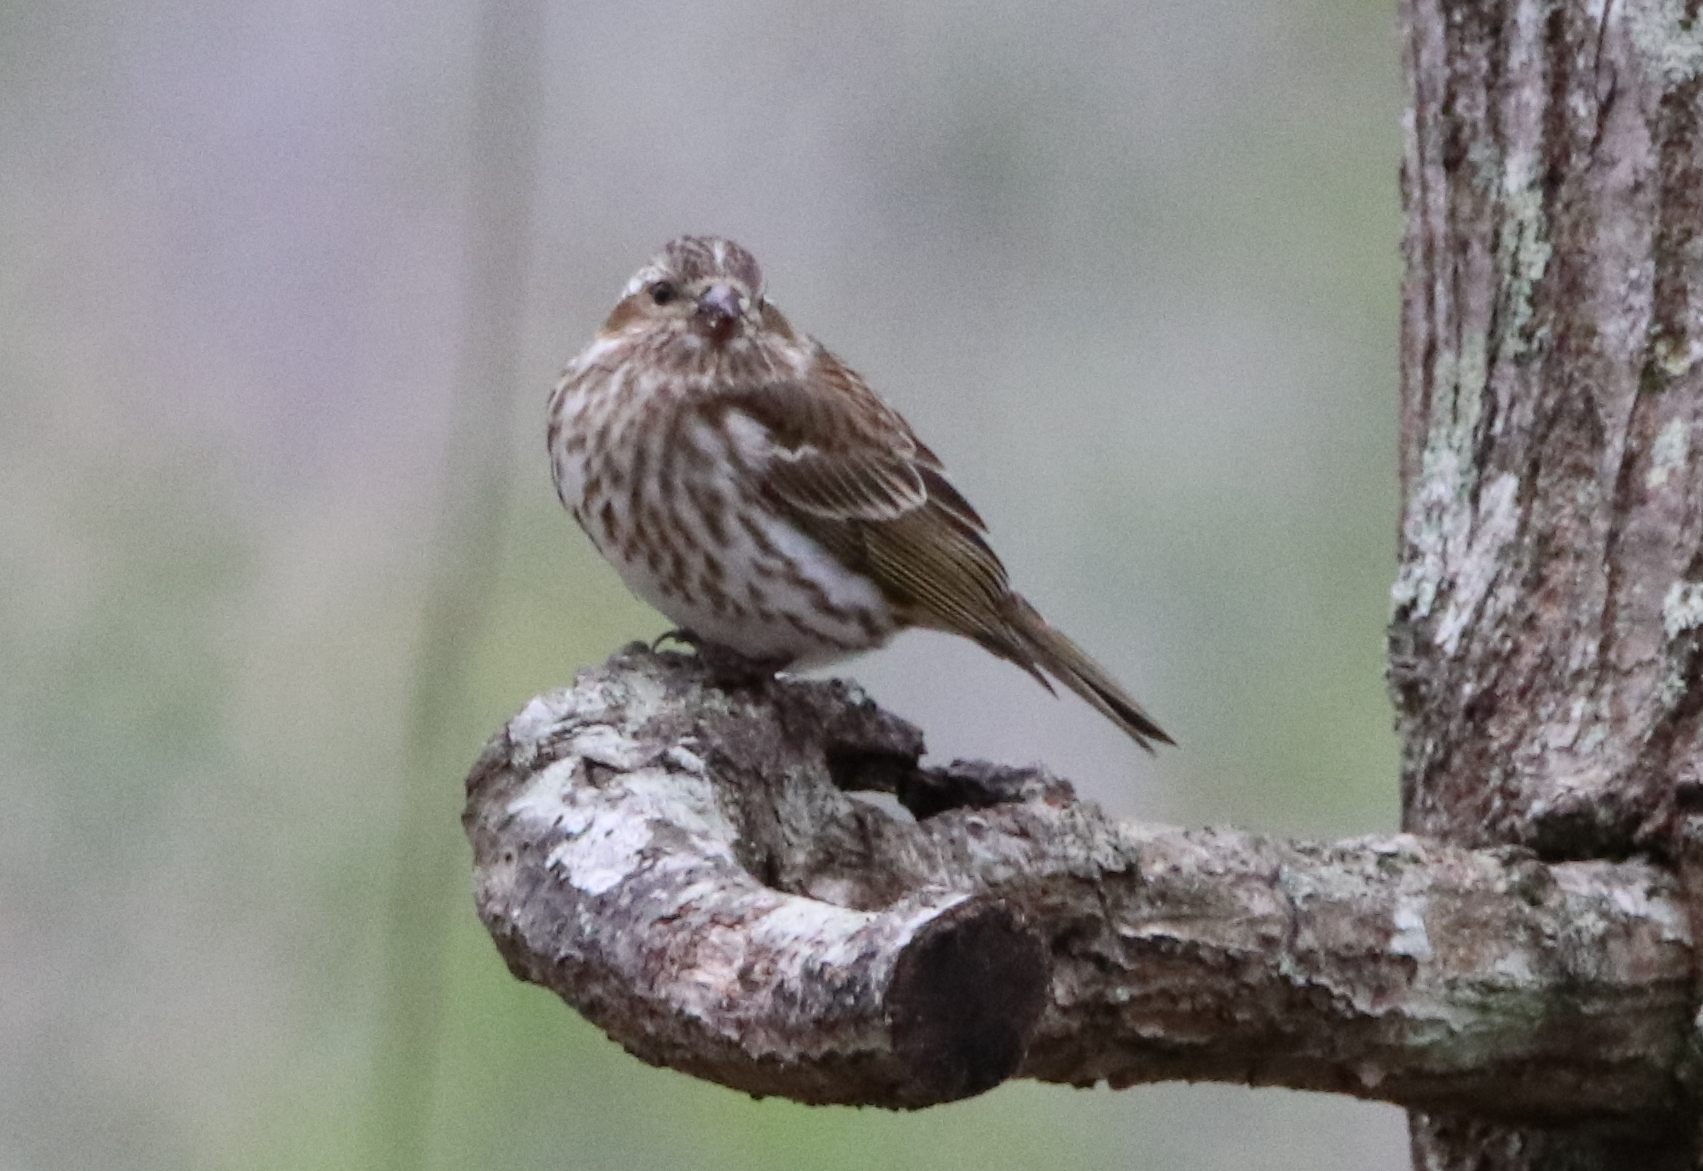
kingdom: Animalia
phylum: Chordata
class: Aves
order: Passeriformes
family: Fringillidae
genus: Haemorhous
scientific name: Haemorhous purpureus
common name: Purple finch
